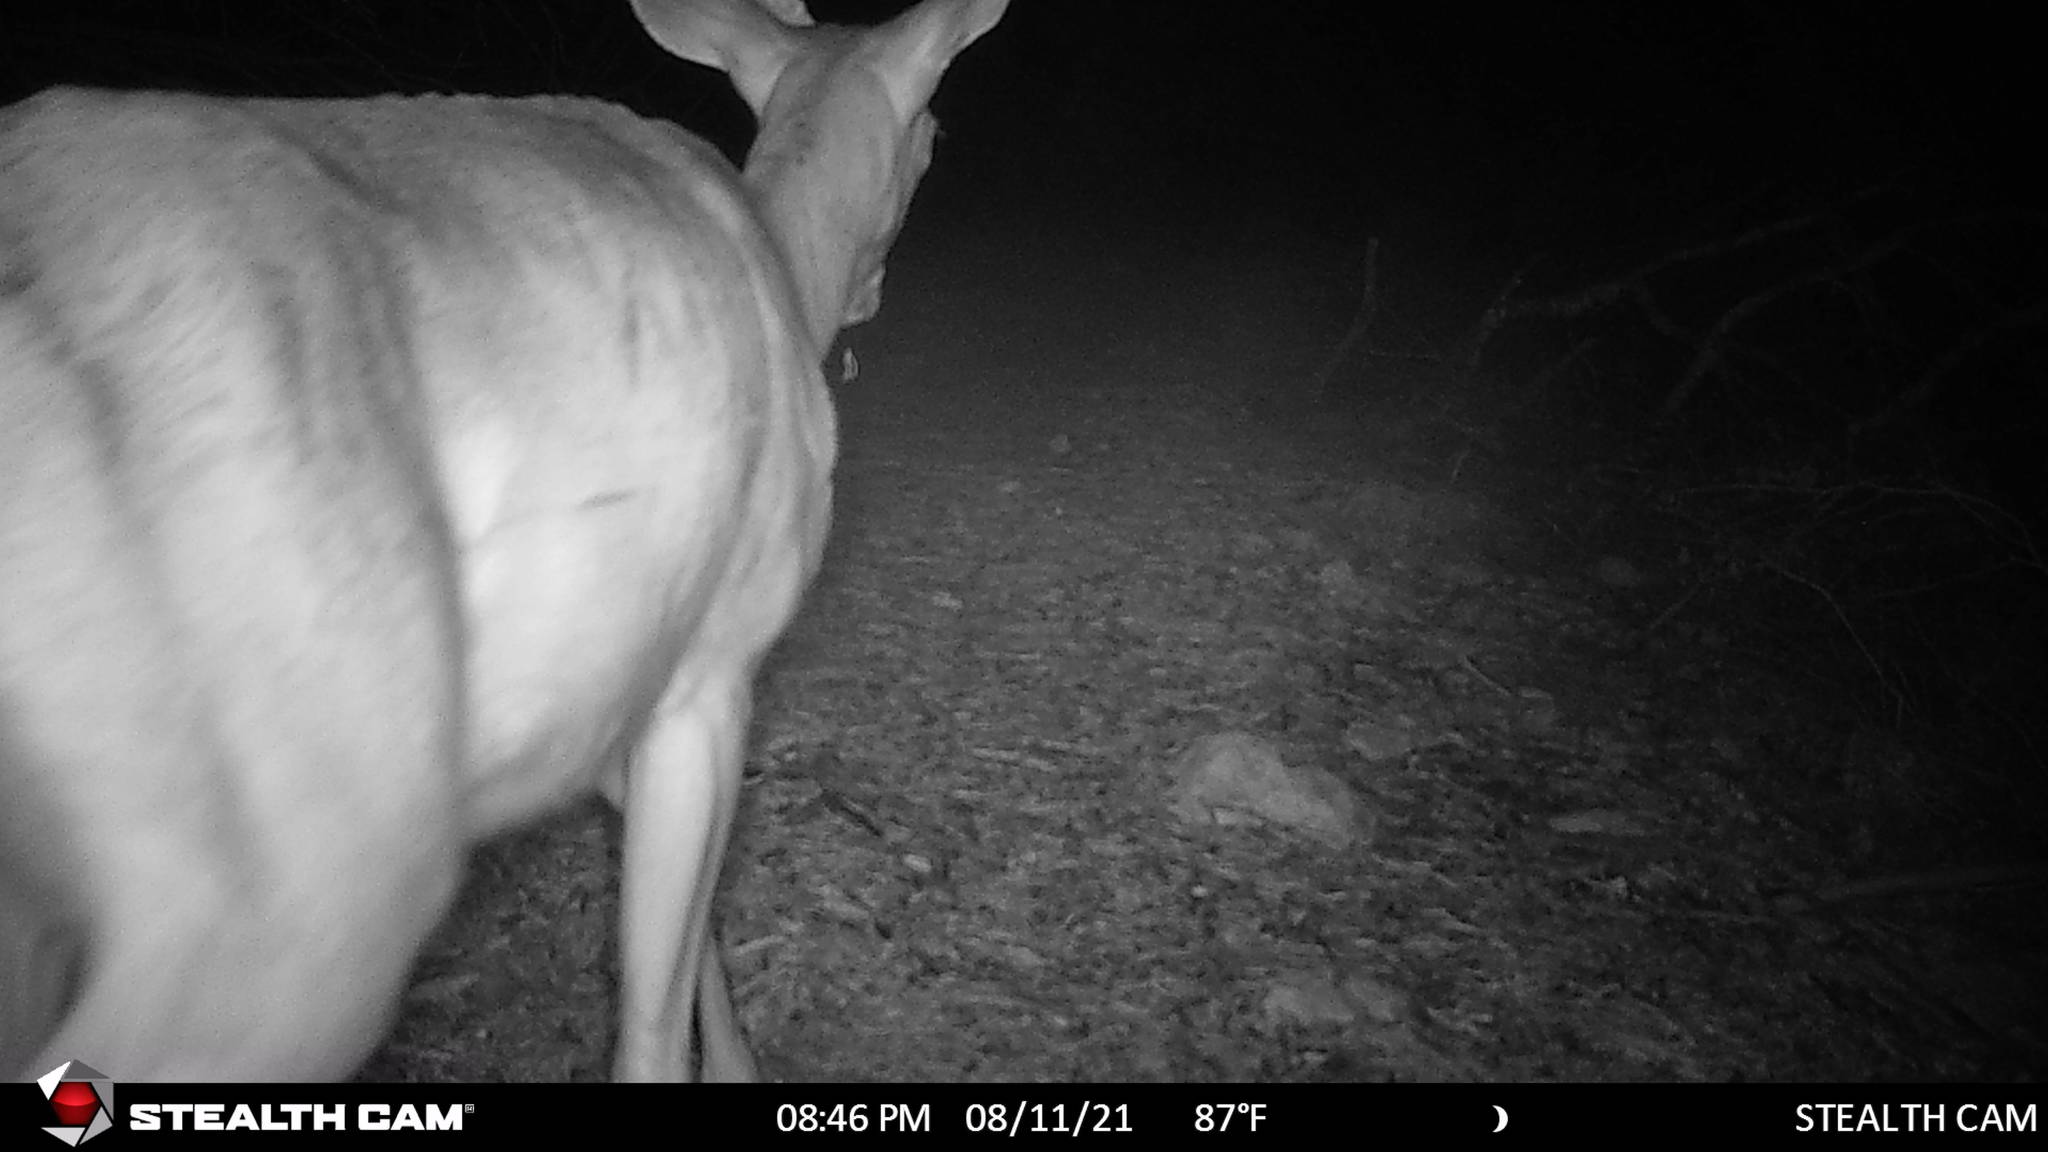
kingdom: Animalia
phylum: Chordata
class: Mammalia
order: Artiodactyla
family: Cervidae
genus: Odocoileus
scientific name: Odocoileus virginianus
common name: White-tailed deer
